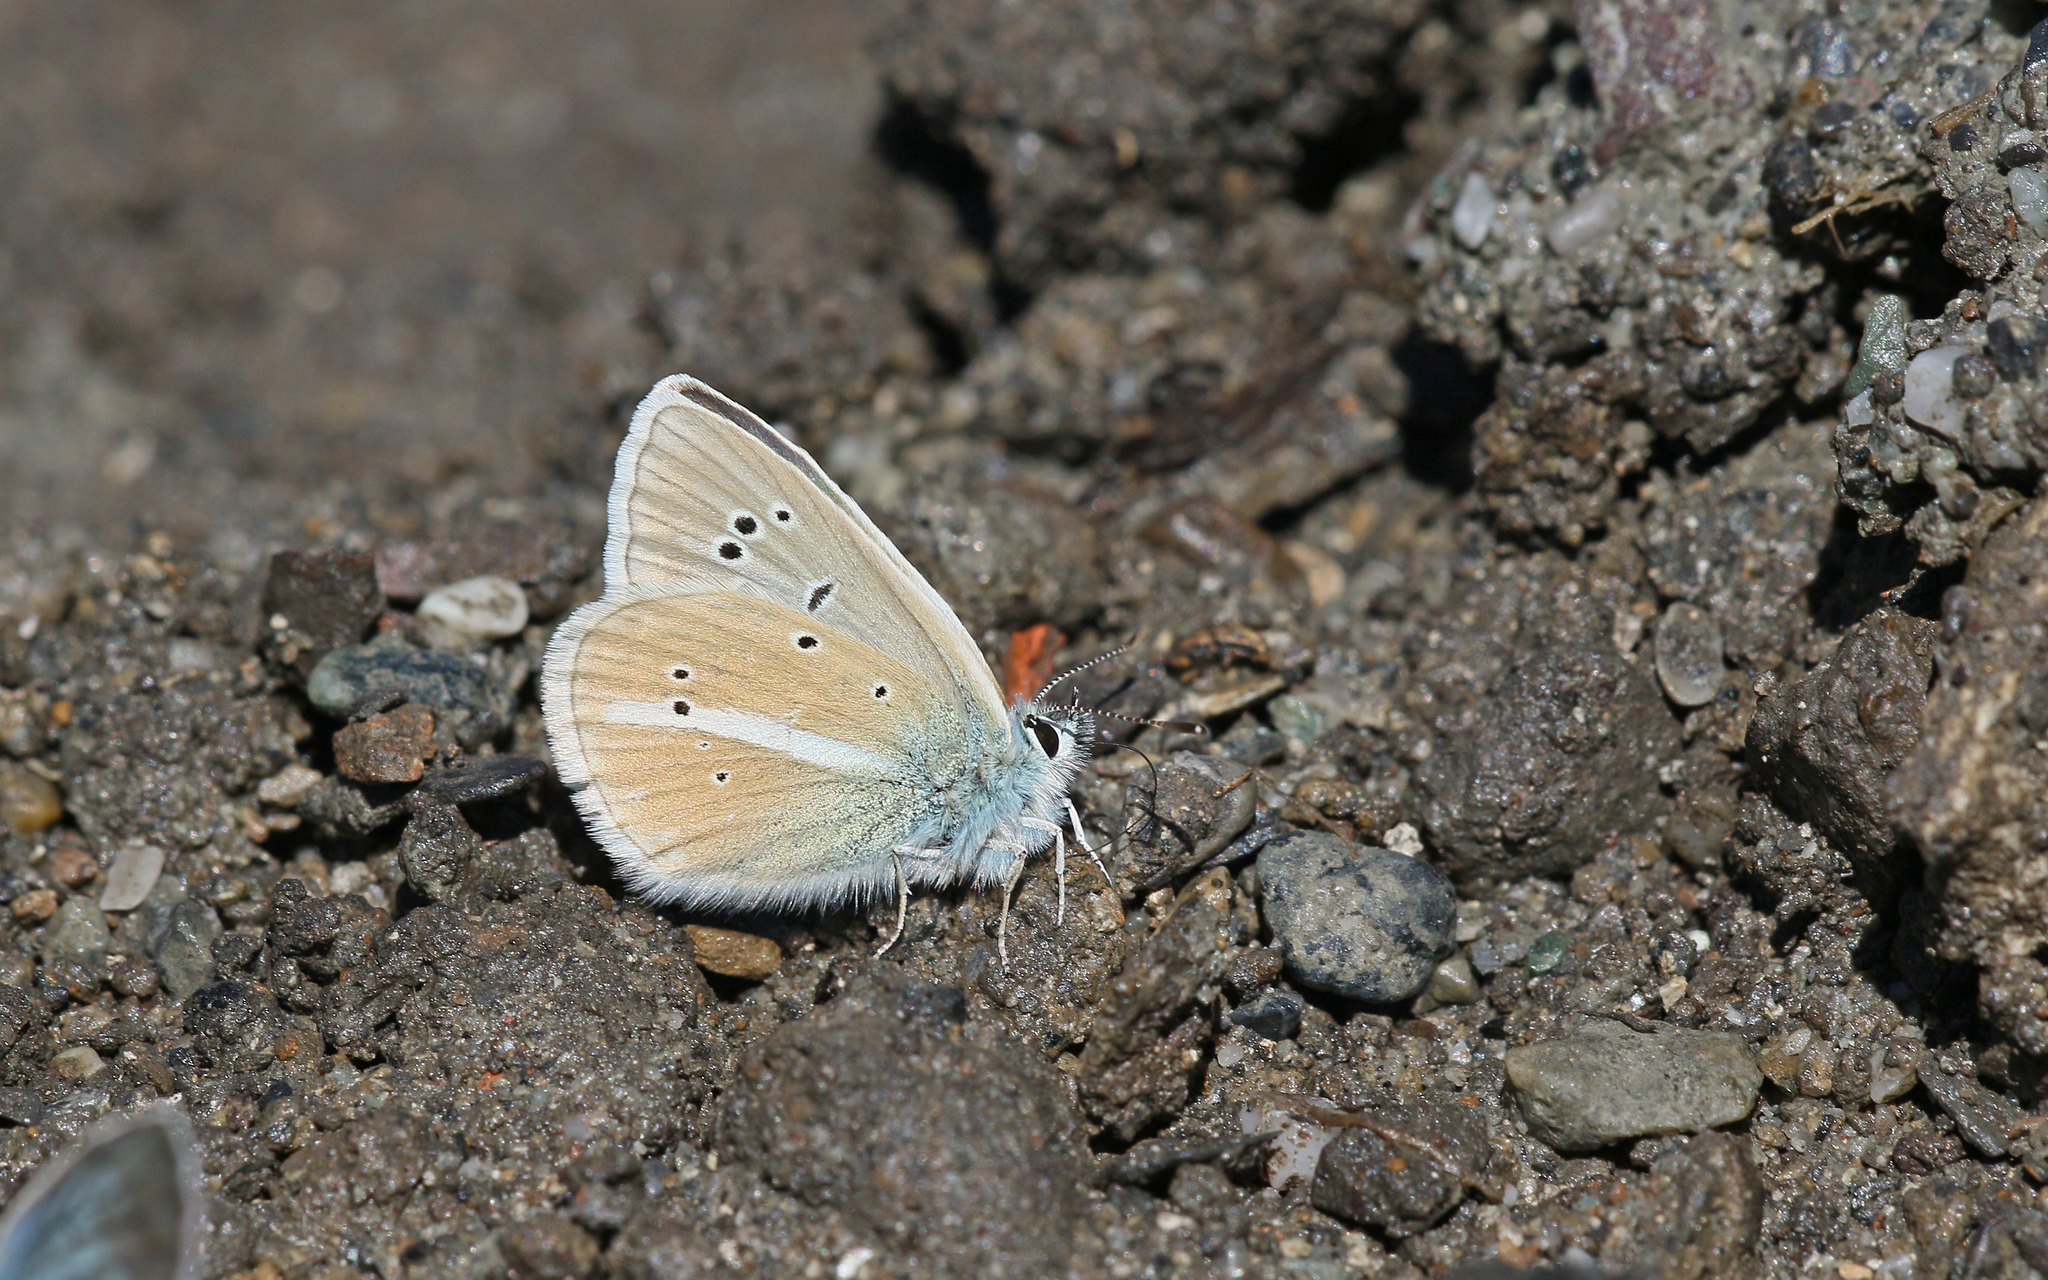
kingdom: Animalia
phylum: Arthropoda
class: Insecta
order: Lepidoptera
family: Lycaenidae
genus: Agrodiaetus
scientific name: Agrodiaetus damon
